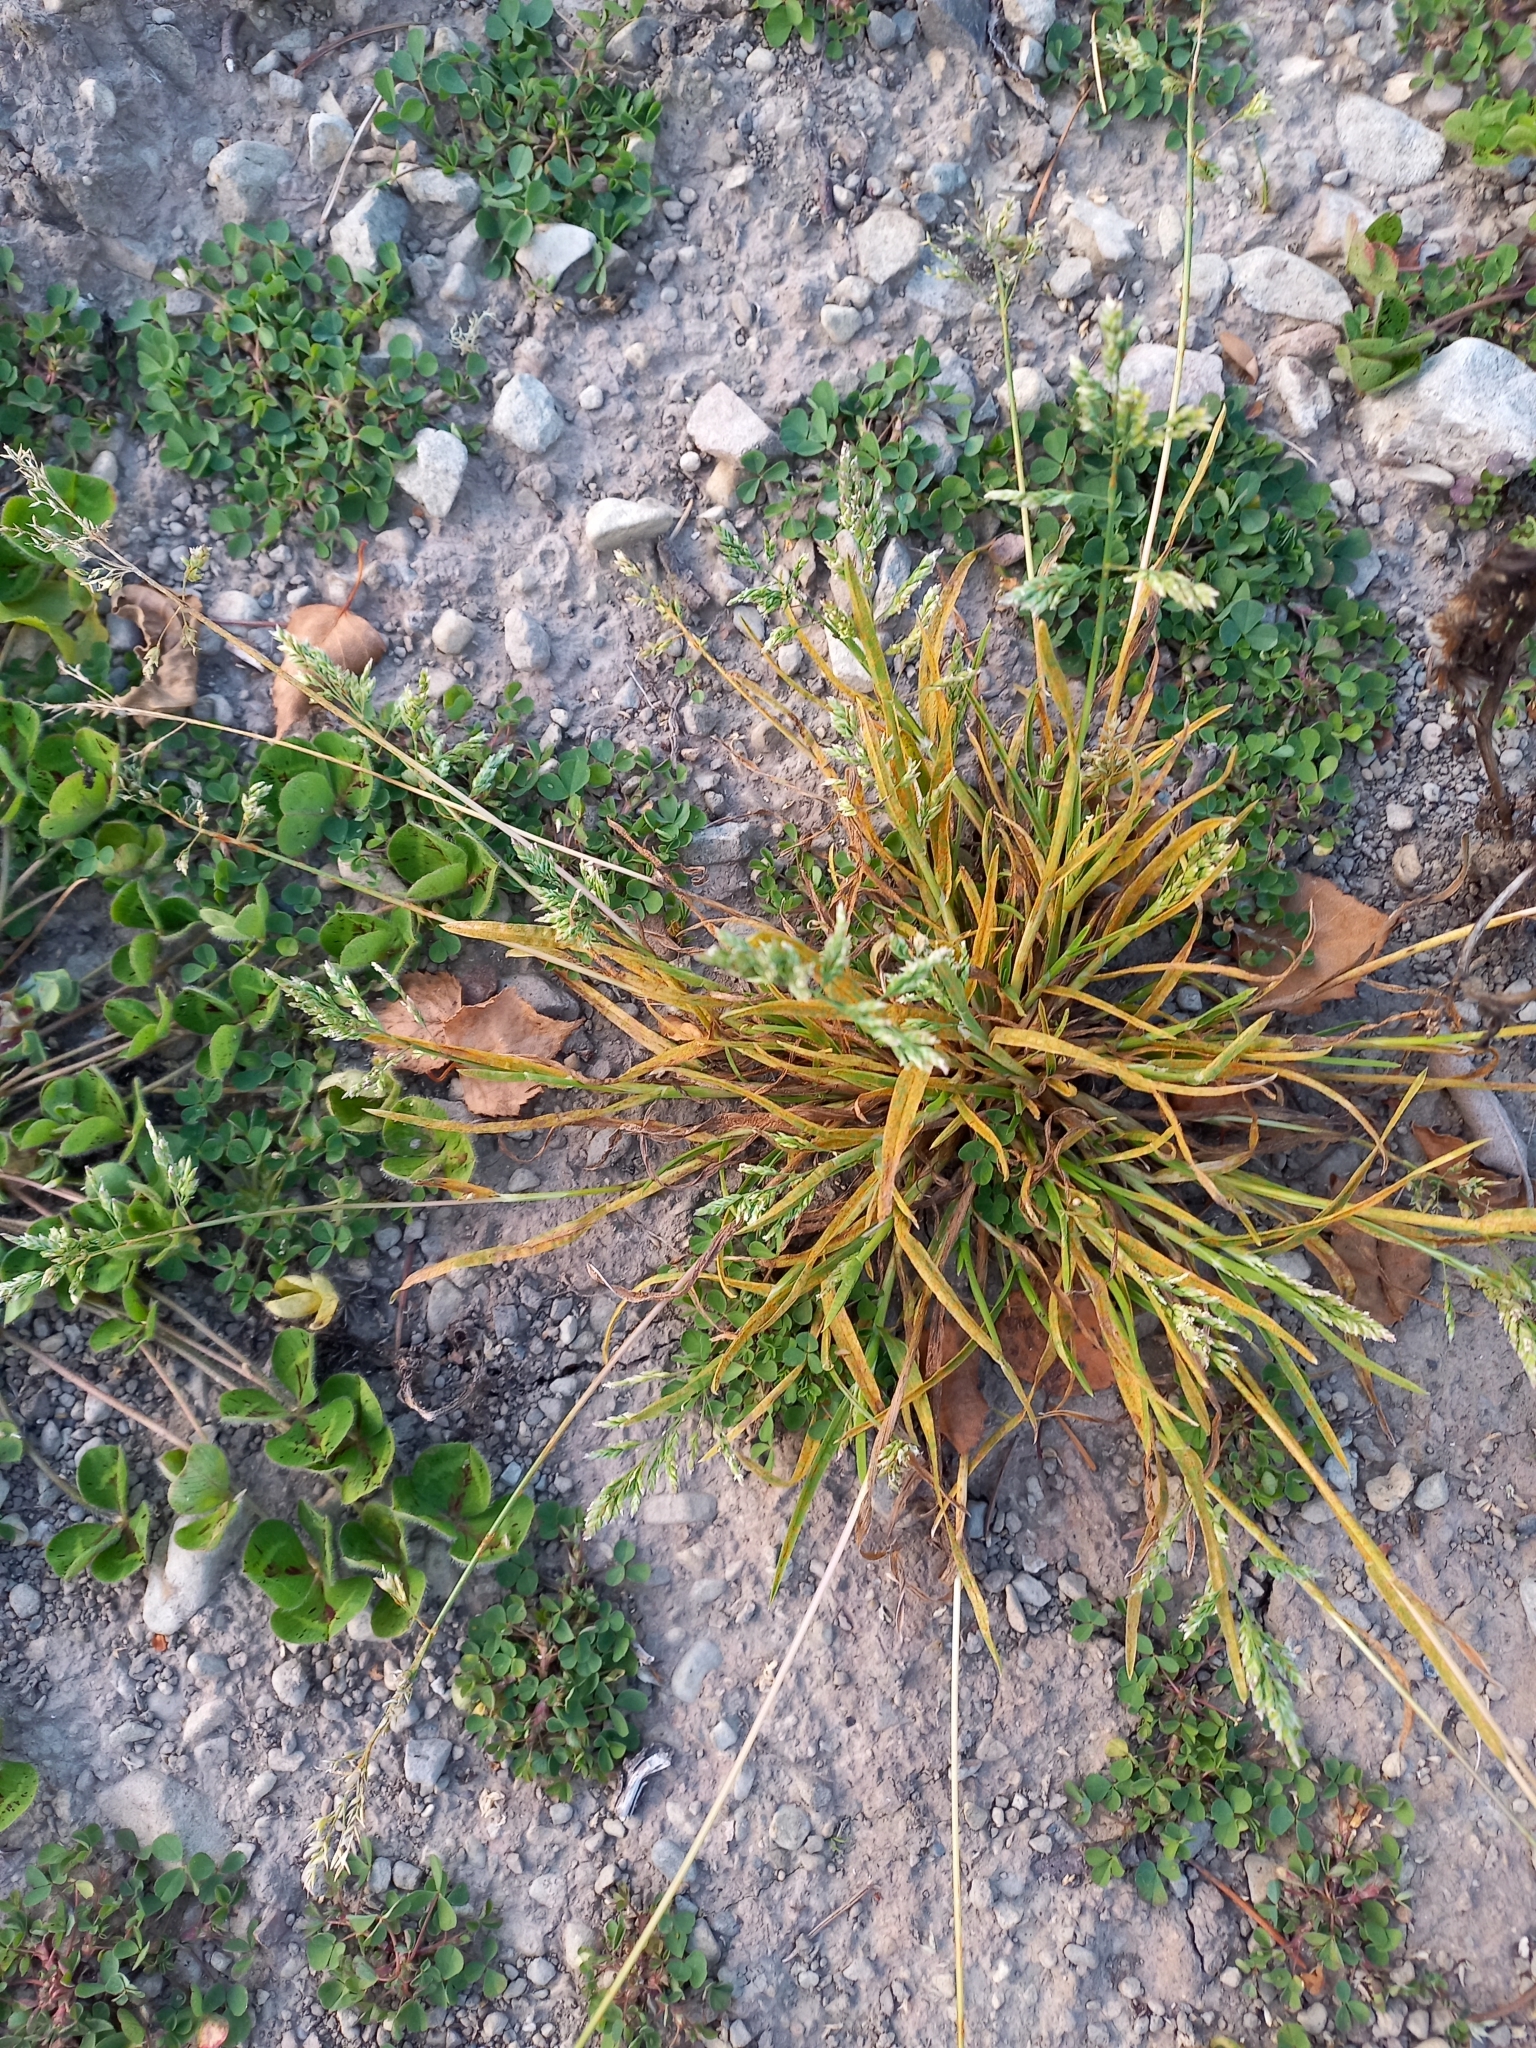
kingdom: Plantae
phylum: Tracheophyta
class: Liliopsida
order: Poales
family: Poaceae
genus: Poa
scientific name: Poa annua
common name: Annual bluegrass
